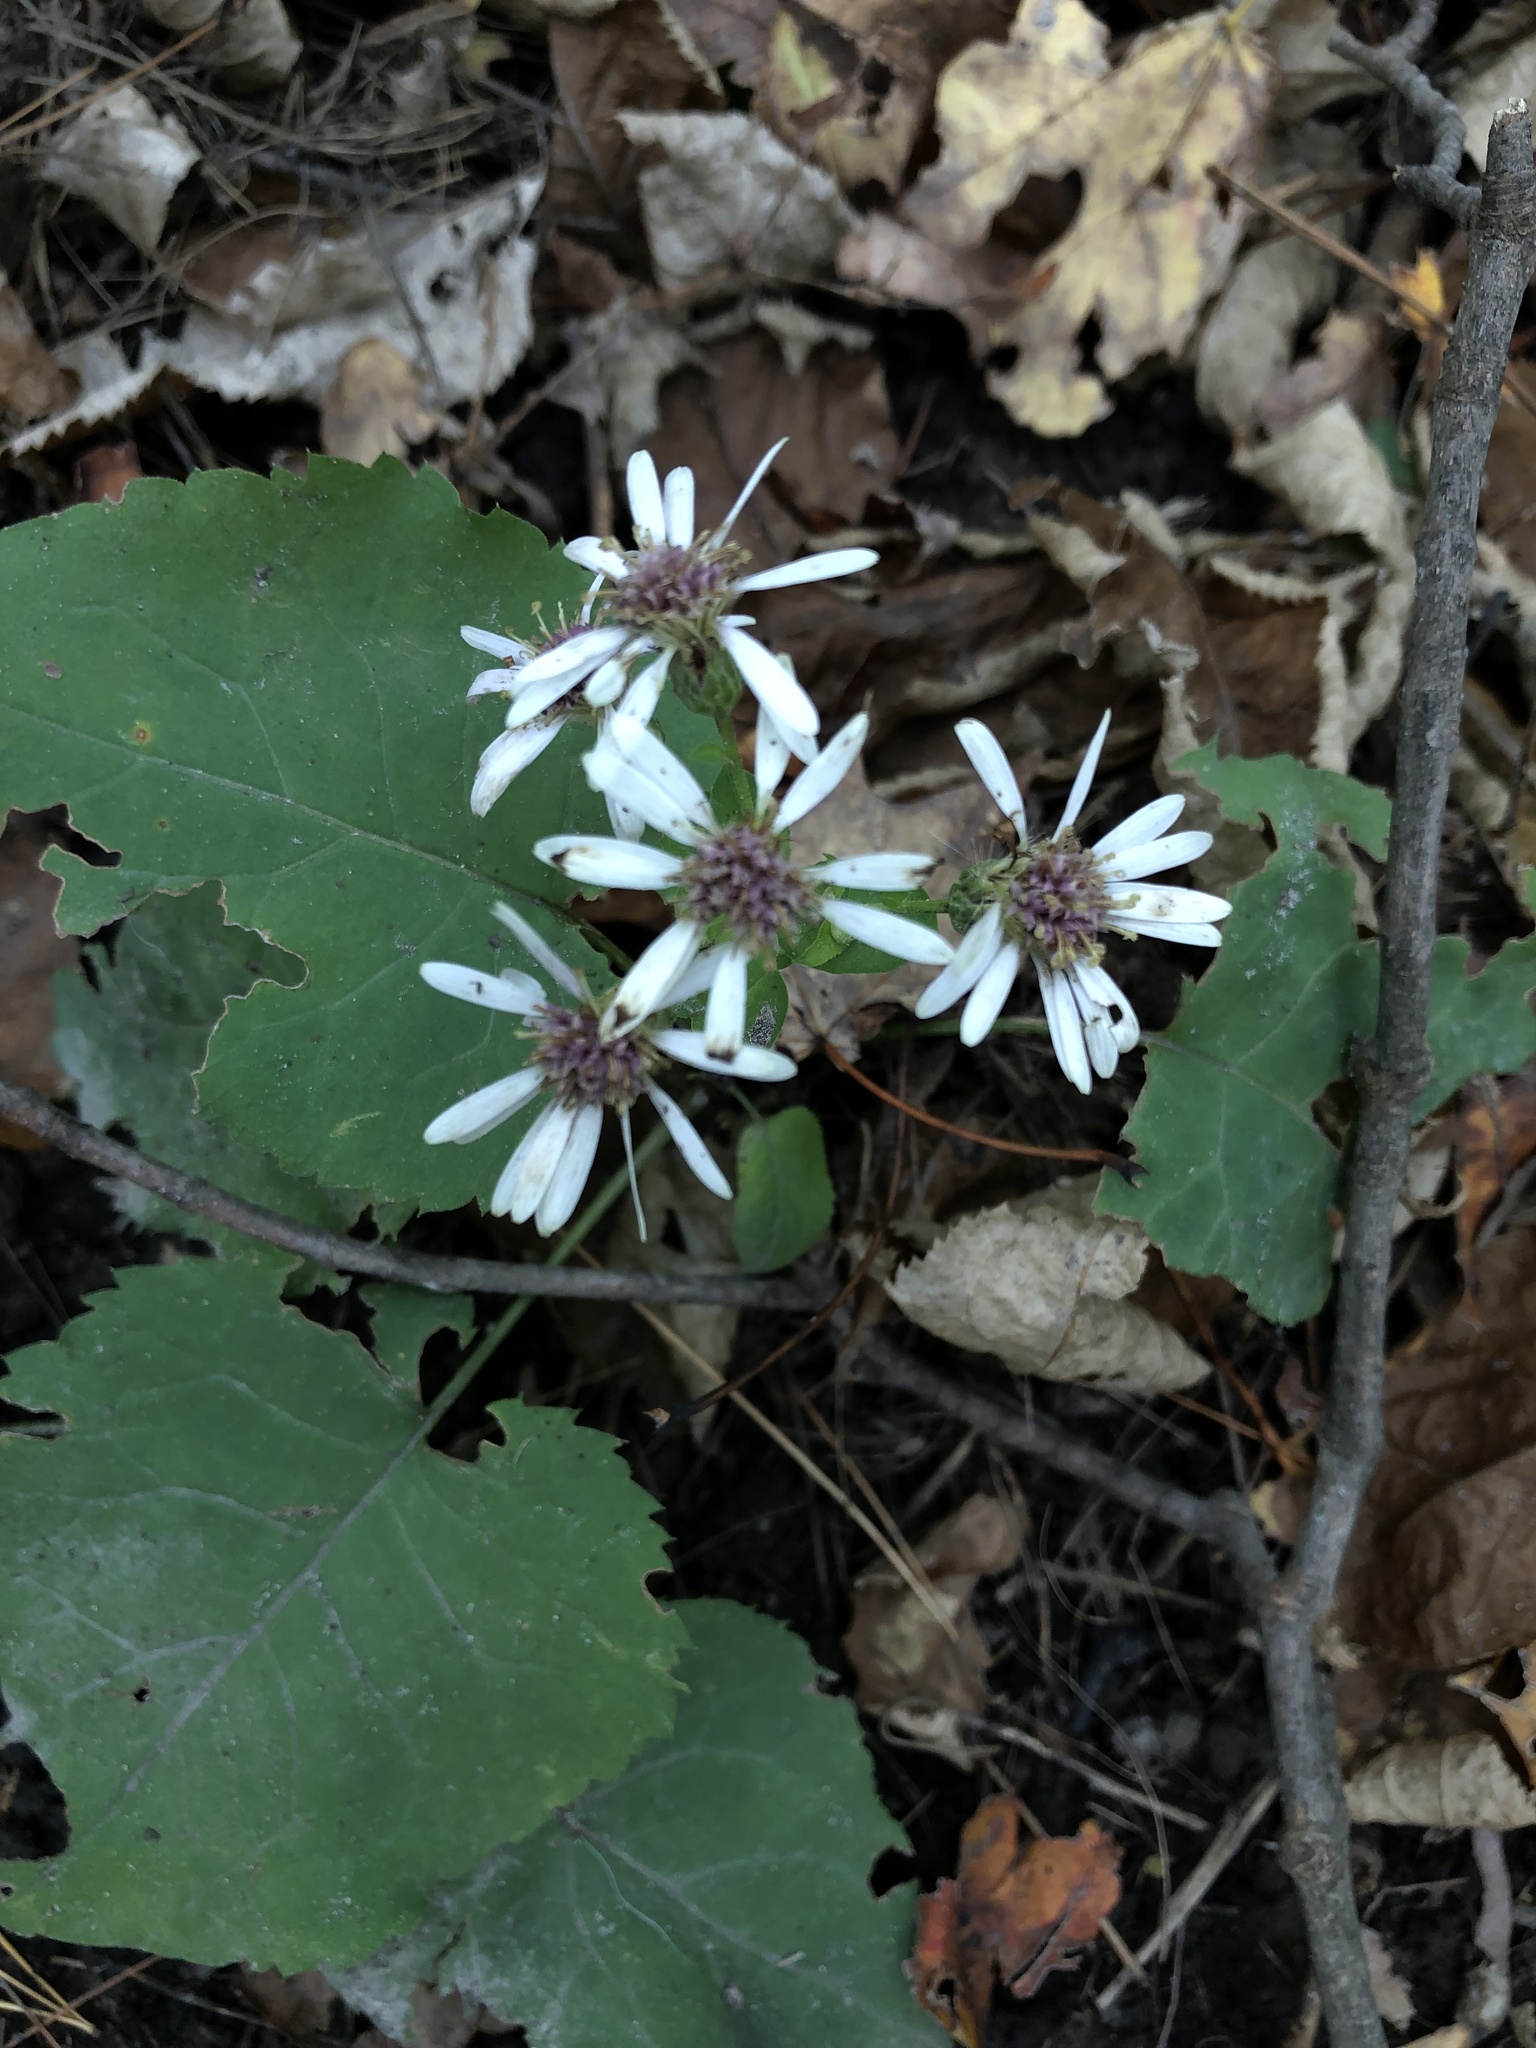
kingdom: Plantae
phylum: Tracheophyta
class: Magnoliopsida
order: Asterales
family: Asteraceae
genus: Eurybia
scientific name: Eurybia macrophylla
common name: Big-leaved aster
